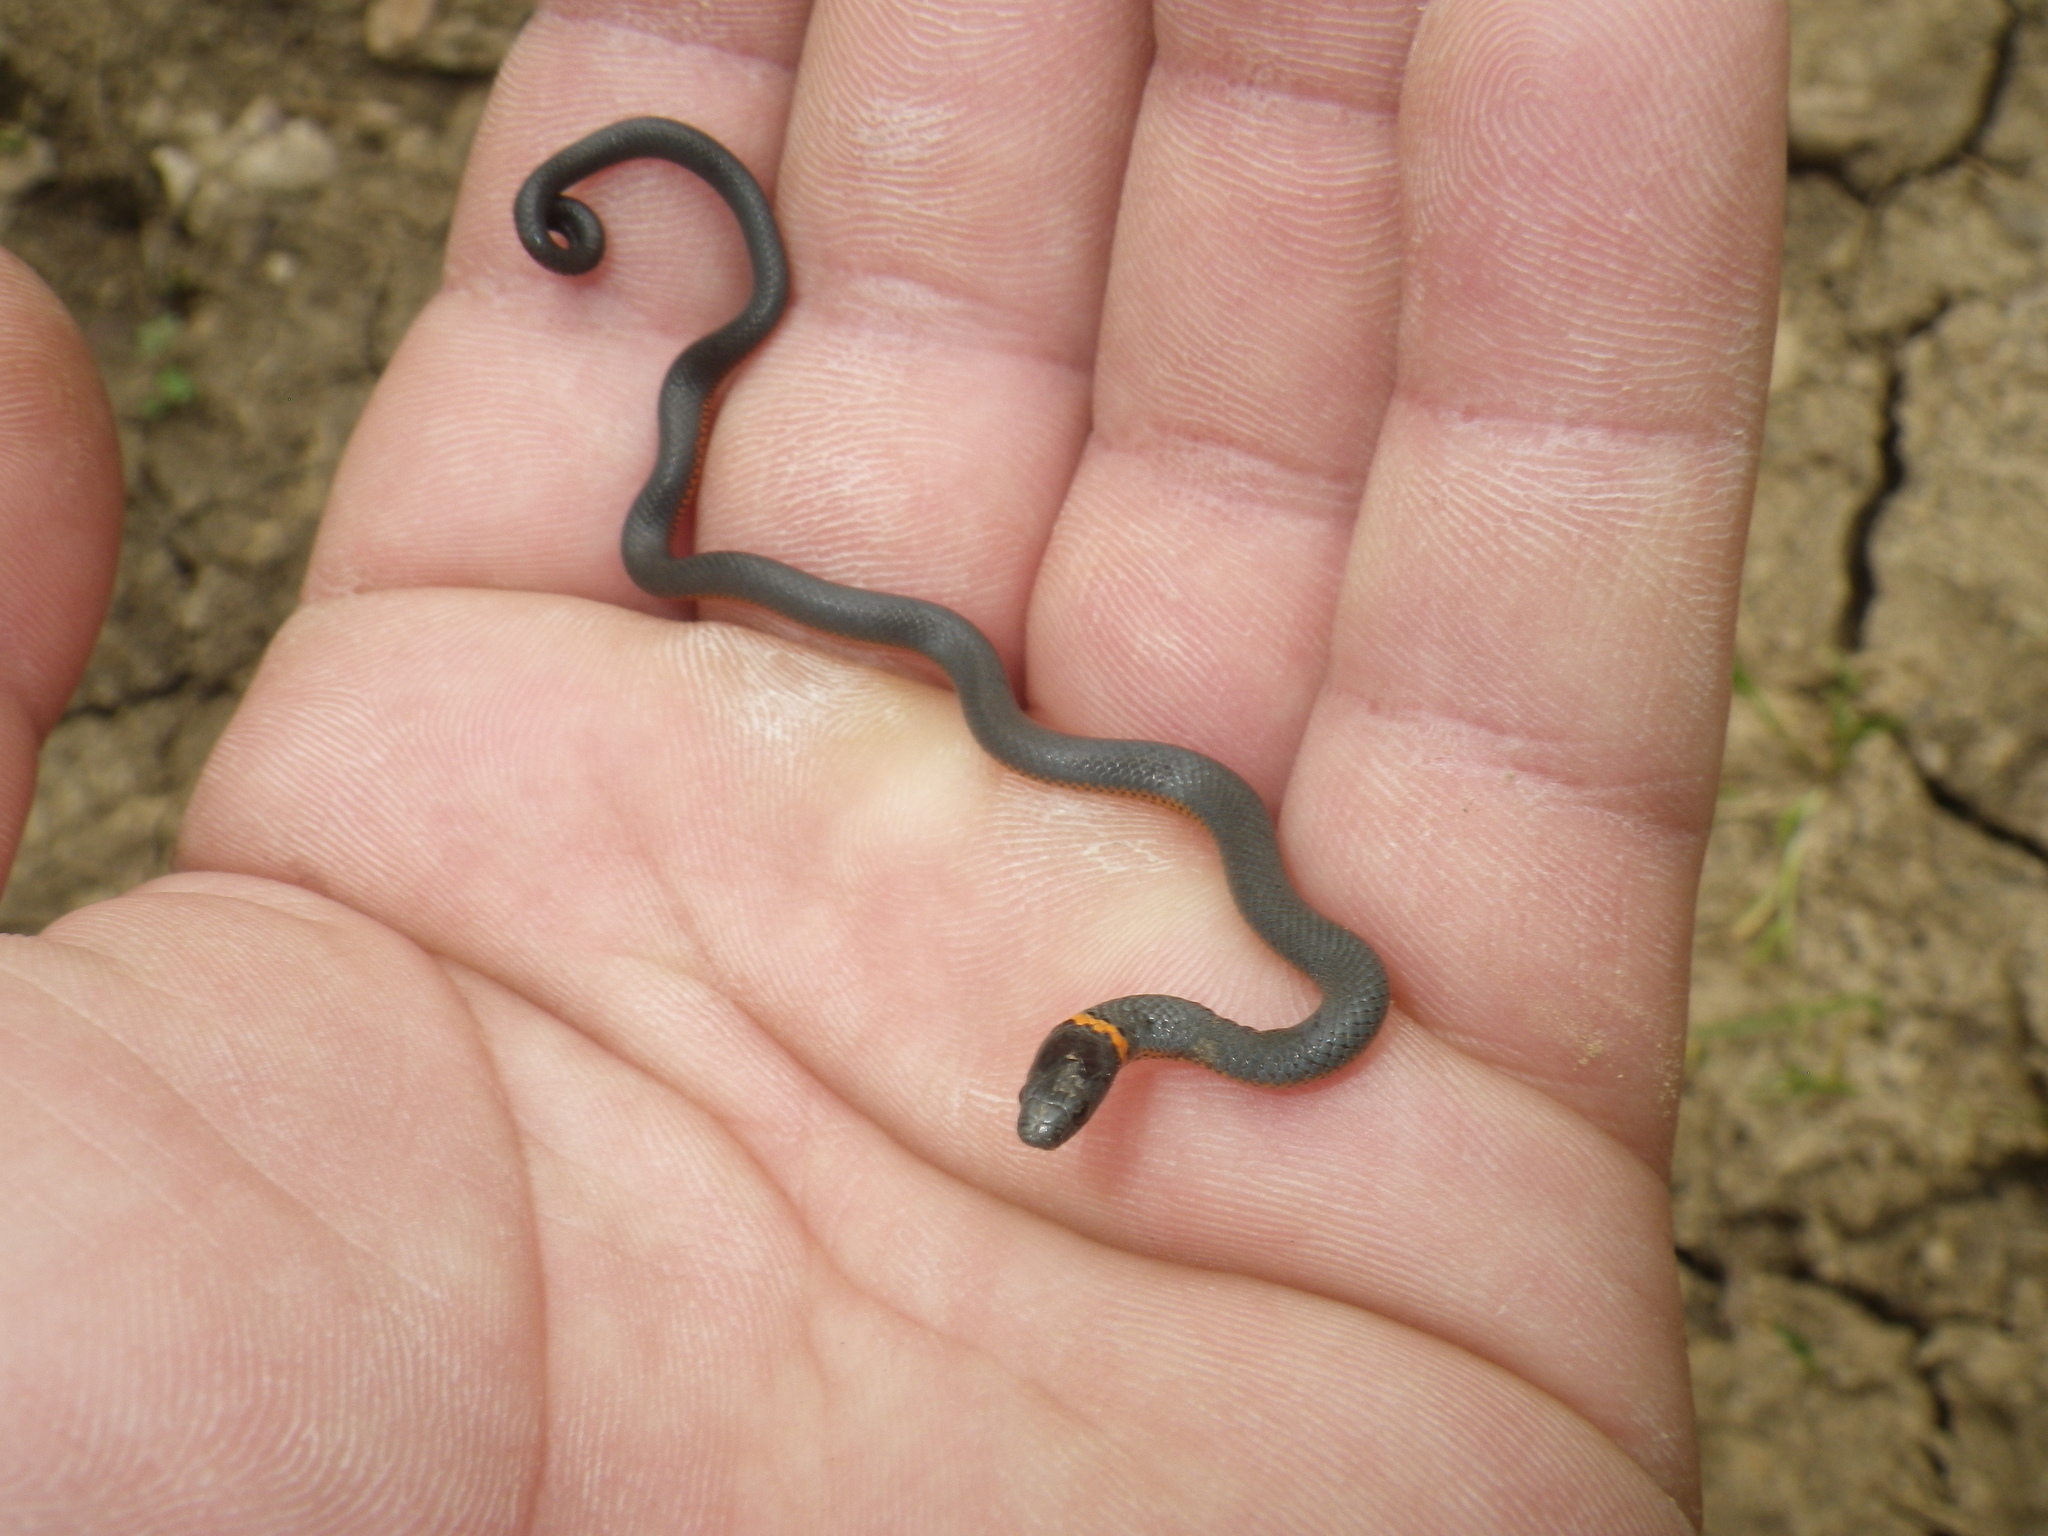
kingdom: Animalia
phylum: Chordata
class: Squamata
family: Colubridae
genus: Diadophis
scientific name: Diadophis punctatus
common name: Ringneck snake
